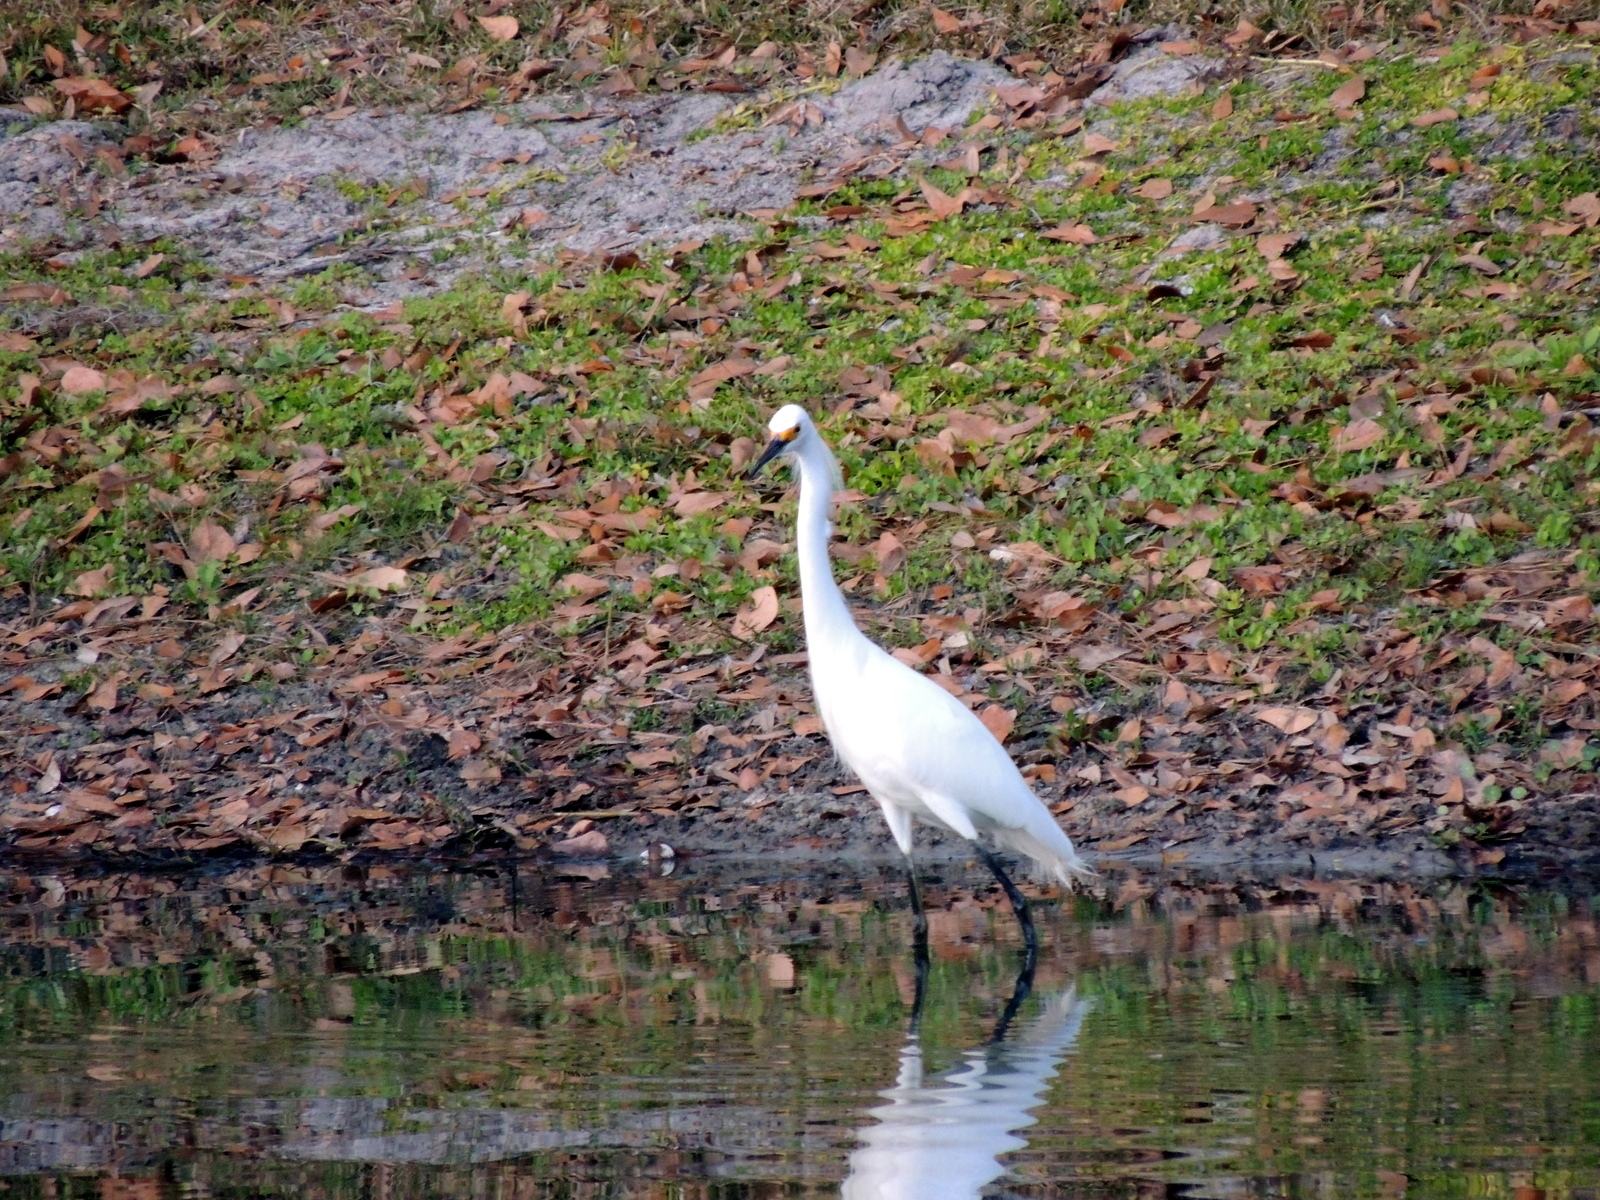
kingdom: Animalia
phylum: Chordata
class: Aves
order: Pelecaniformes
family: Ardeidae
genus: Egretta
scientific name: Egretta thula
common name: Snowy egret
